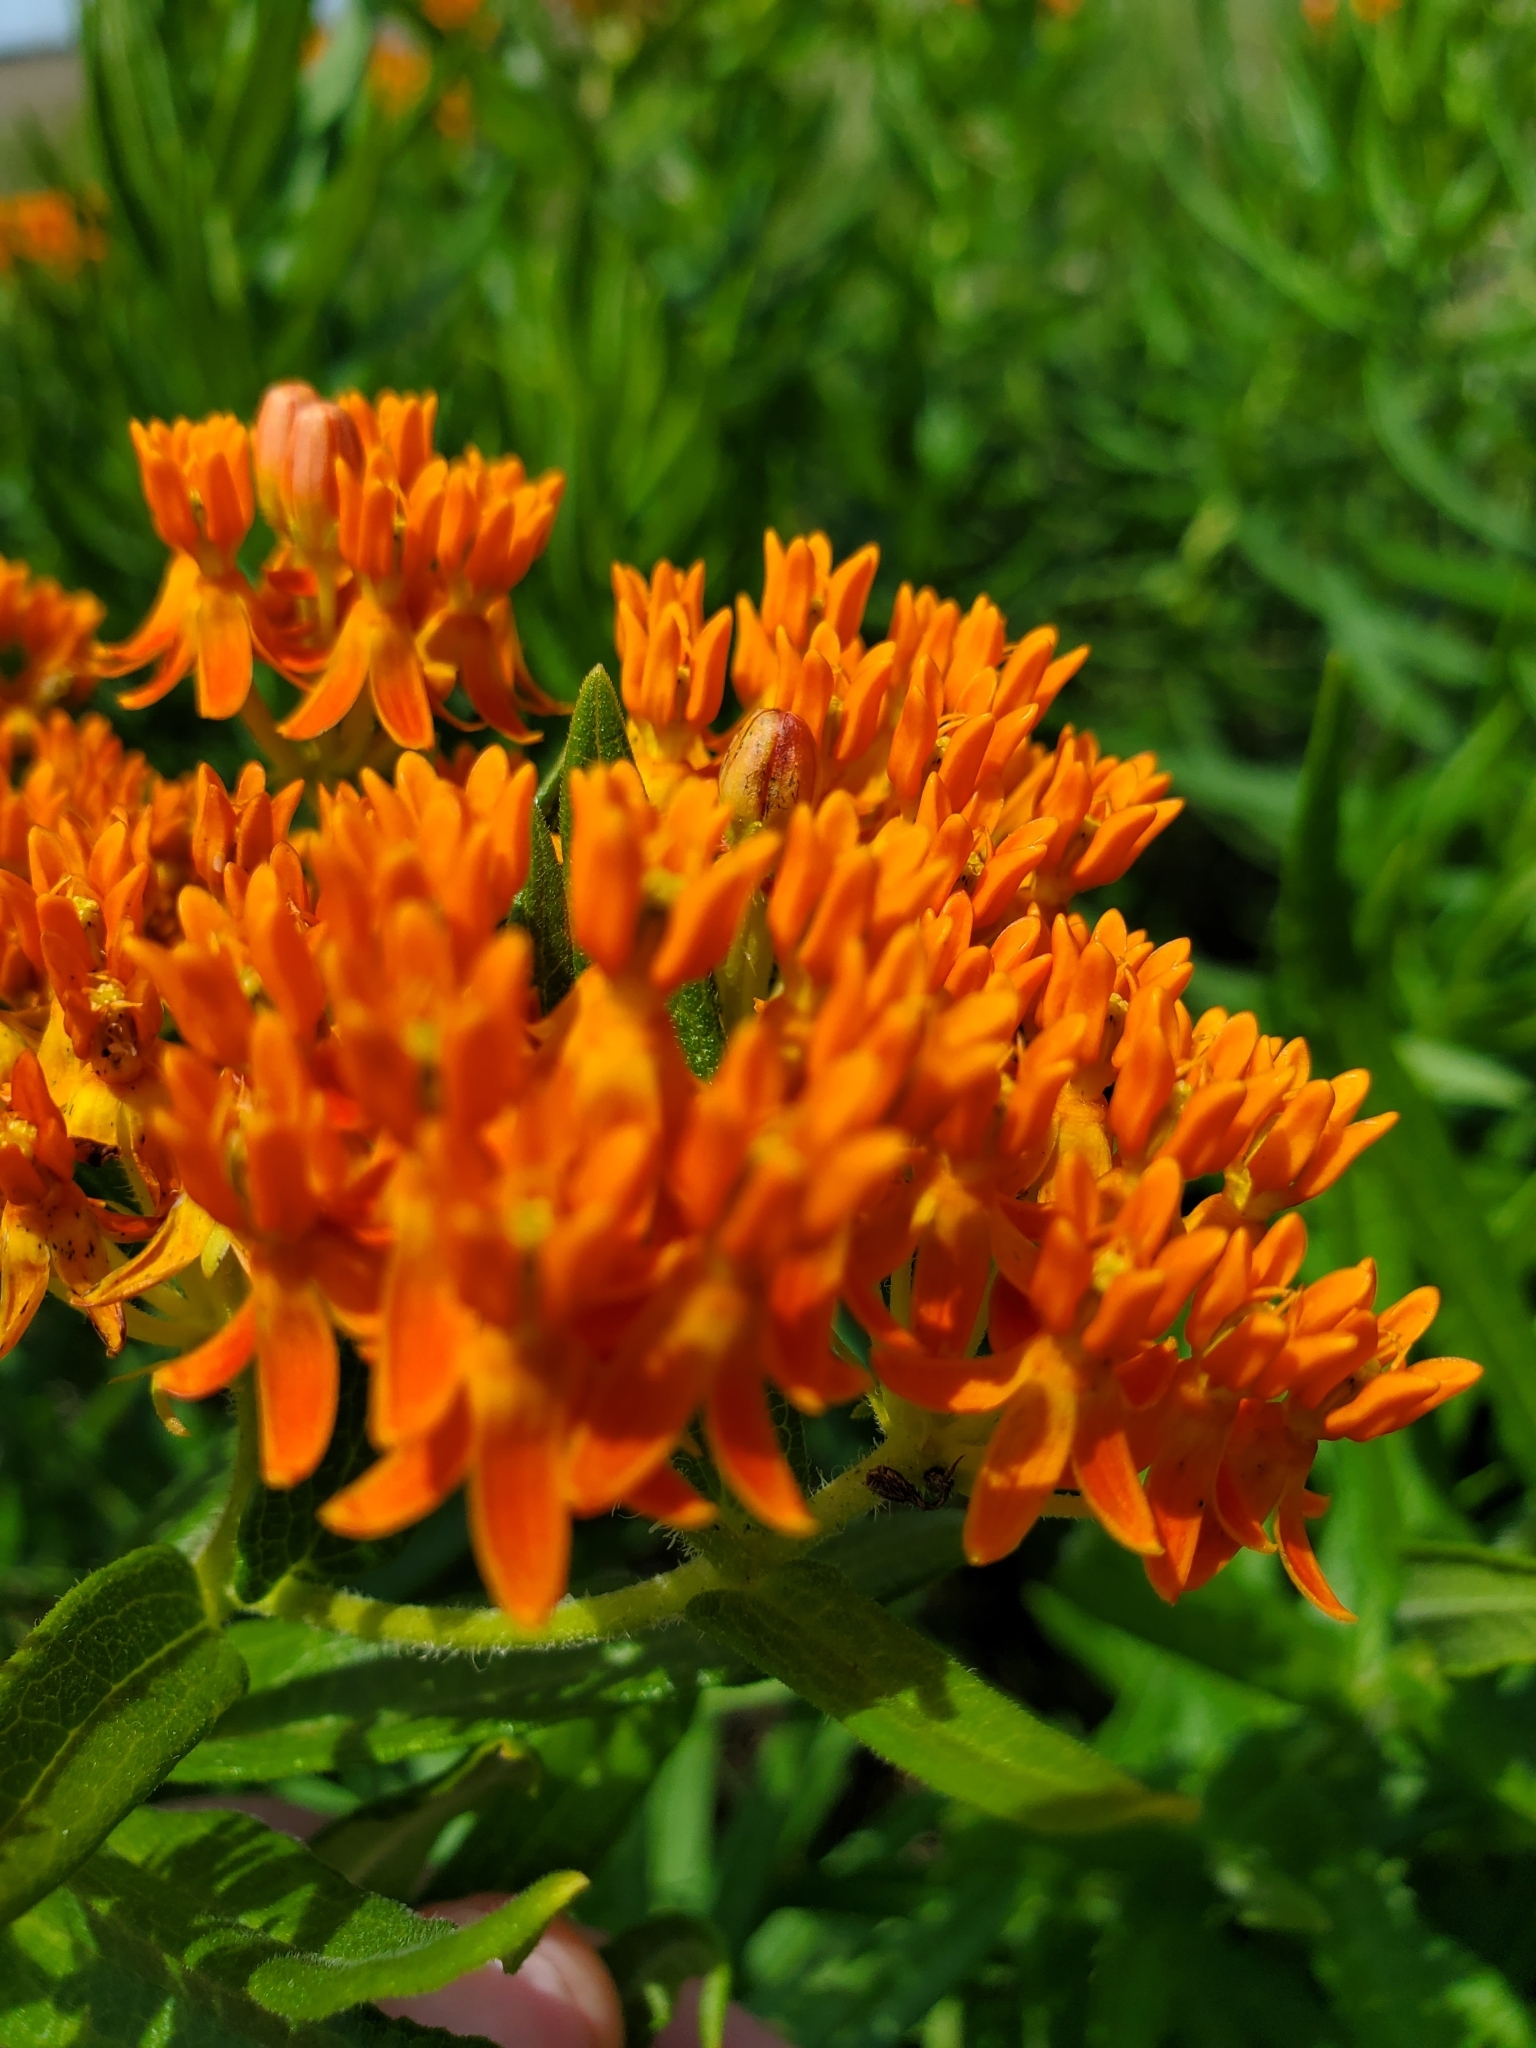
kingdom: Plantae
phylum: Tracheophyta
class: Magnoliopsida
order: Gentianales
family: Apocynaceae
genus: Asclepias
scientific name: Asclepias tuberosa
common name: Butterfly milkweed
